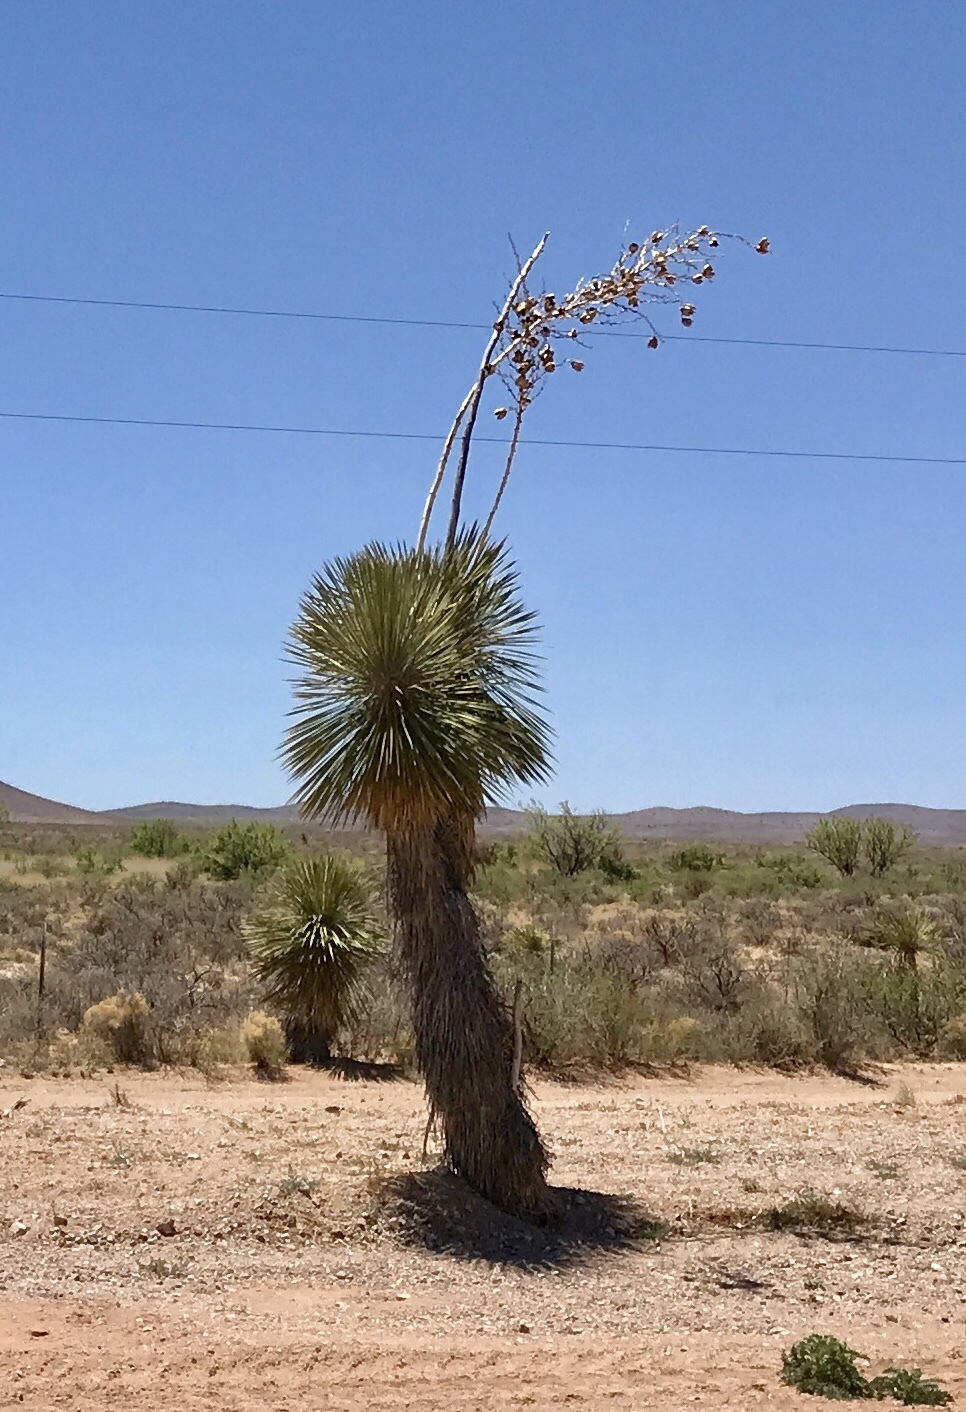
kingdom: Plantae
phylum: Tracheophyta
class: Liliopsida
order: Asparagales
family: Asparagaceae
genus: Yucca
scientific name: Yucca elata
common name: Palmella
